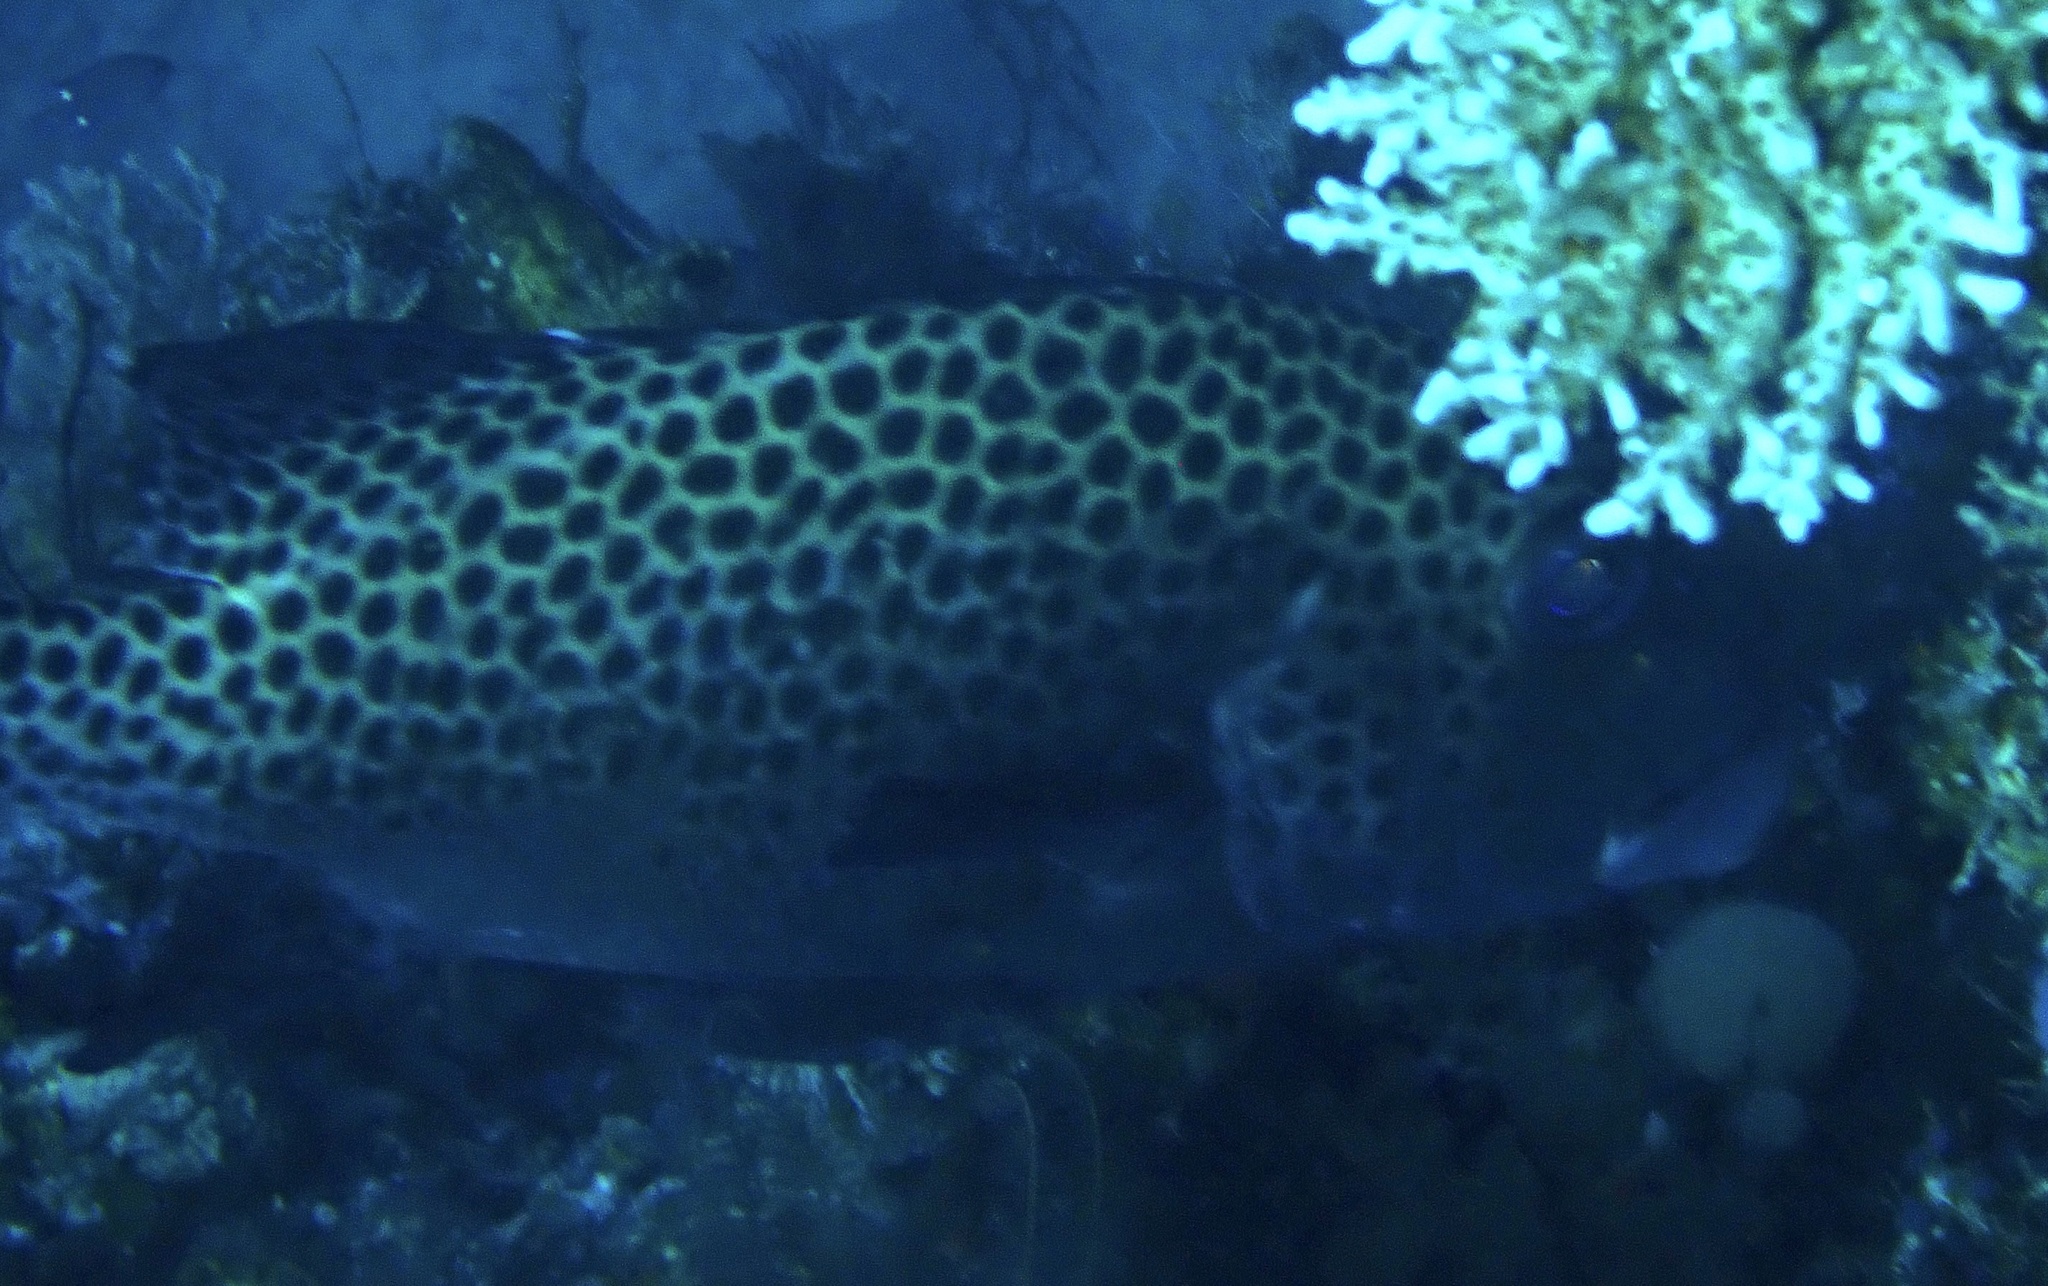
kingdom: Animalia
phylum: Chordata
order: Perciformes
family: Haemulidae
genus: Plectorhinchus
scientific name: Plectorhinchus chaetodonoides
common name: Harlequin sweetlips
